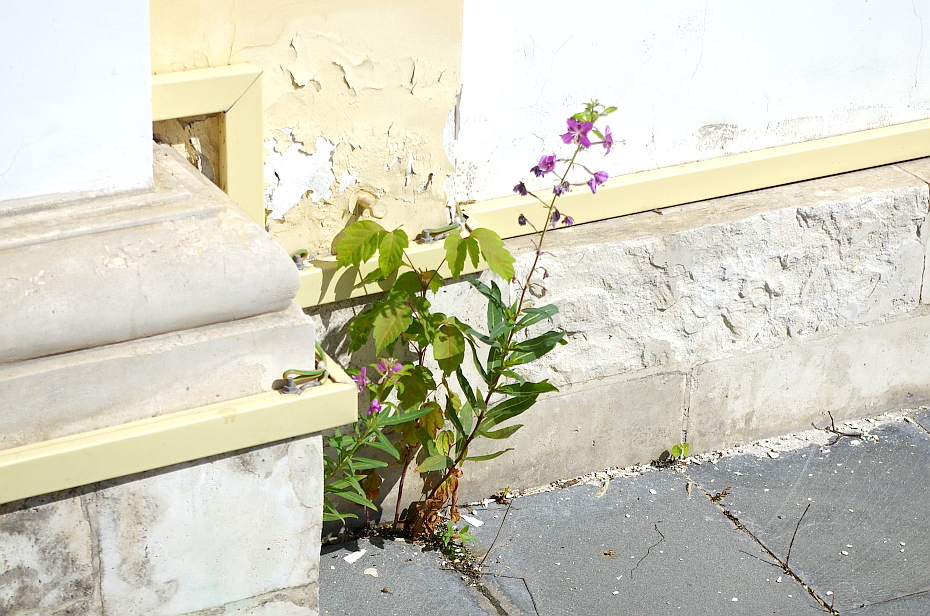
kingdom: Plantae
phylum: Tracheophyta
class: Magnoliopsida
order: Myrtales
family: Onagraceae
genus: Chamaenerion
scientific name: Chamaenerion angustifolium
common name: Fireweed
